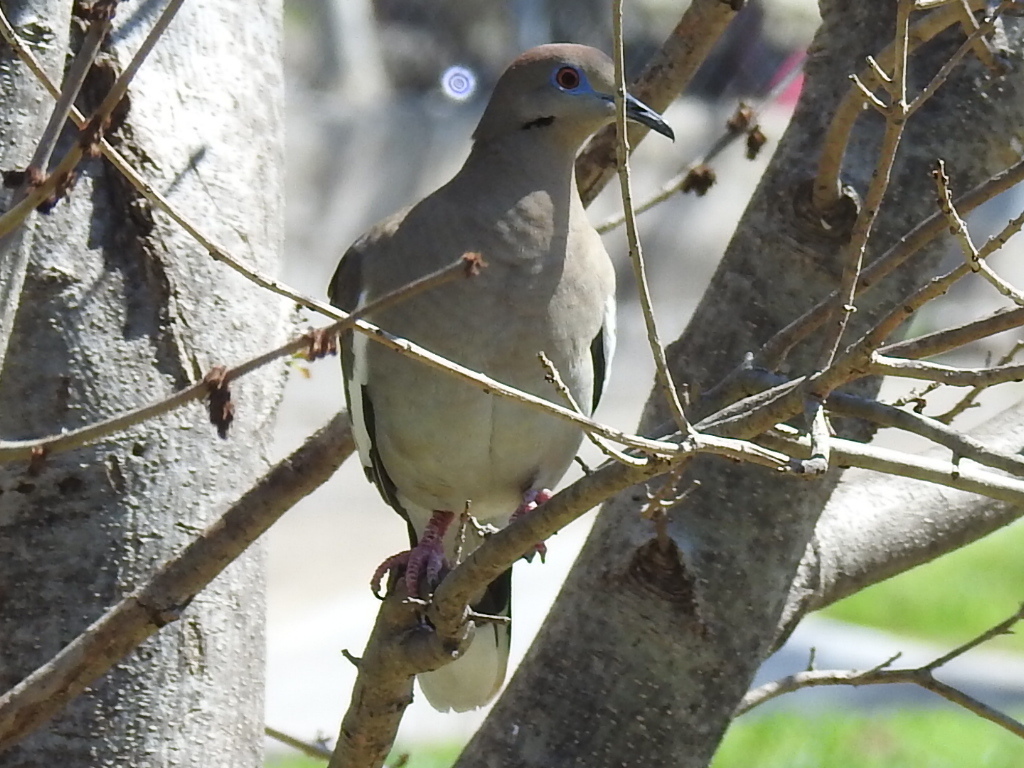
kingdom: Animalia
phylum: Chordata
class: Aves
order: Columbiformes
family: Columbidae
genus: Zenaida
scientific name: Zenaida asiatica
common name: White-winged dove
